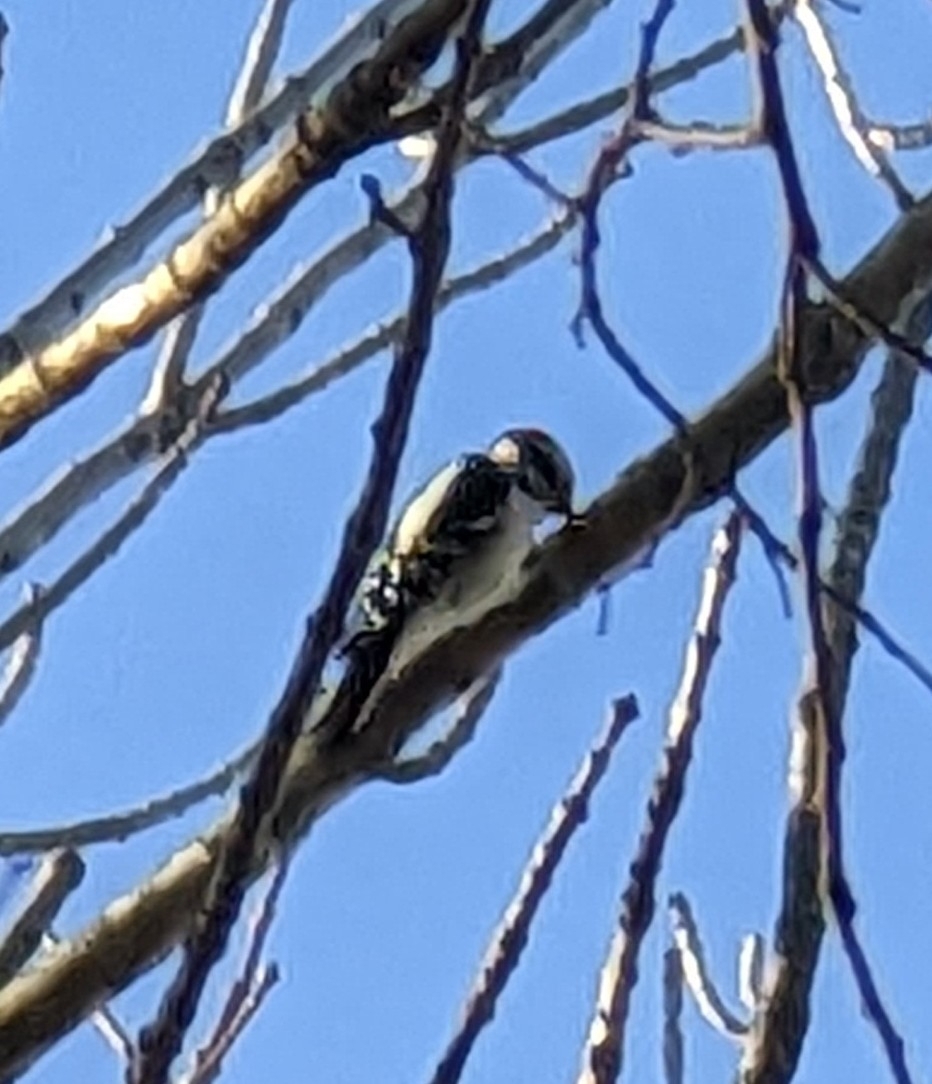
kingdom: Animalia
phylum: Chordata
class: Aves
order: Piciformes
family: Picidae
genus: Dryobates
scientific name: Dryobates pubescens
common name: Downy woodpecker
